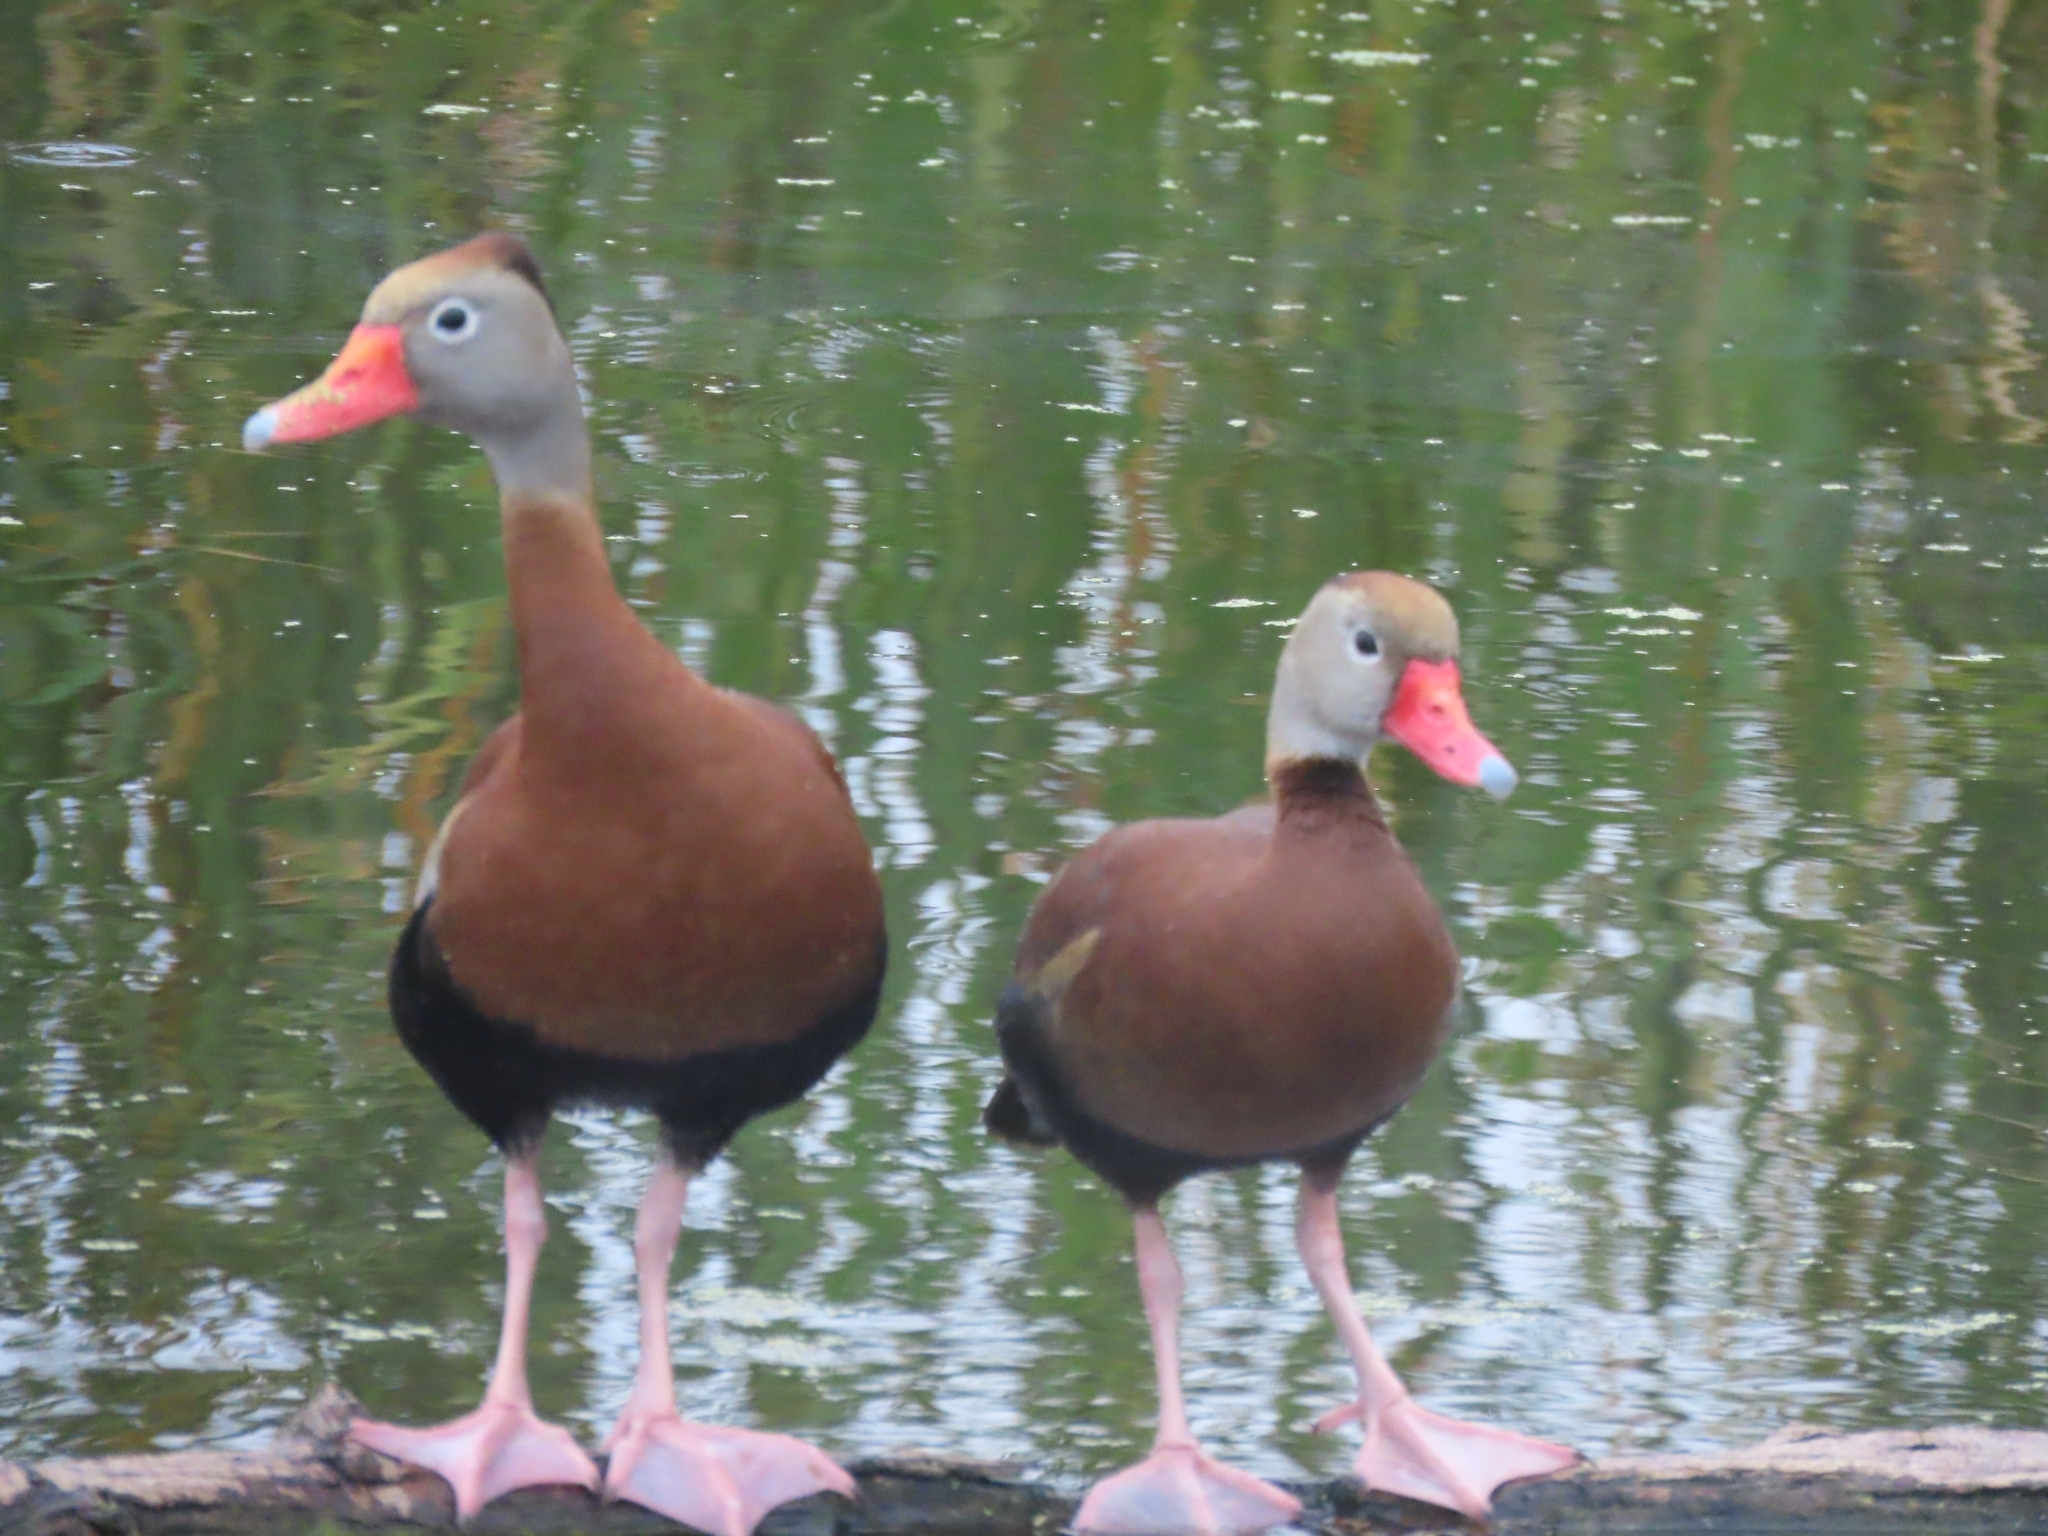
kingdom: Animalia
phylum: Chordata
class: Aves
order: Anseriformes
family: Anatidae
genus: Dendrocygna
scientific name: Dendrocygna autumnalis
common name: Black-bellied whistling duck
